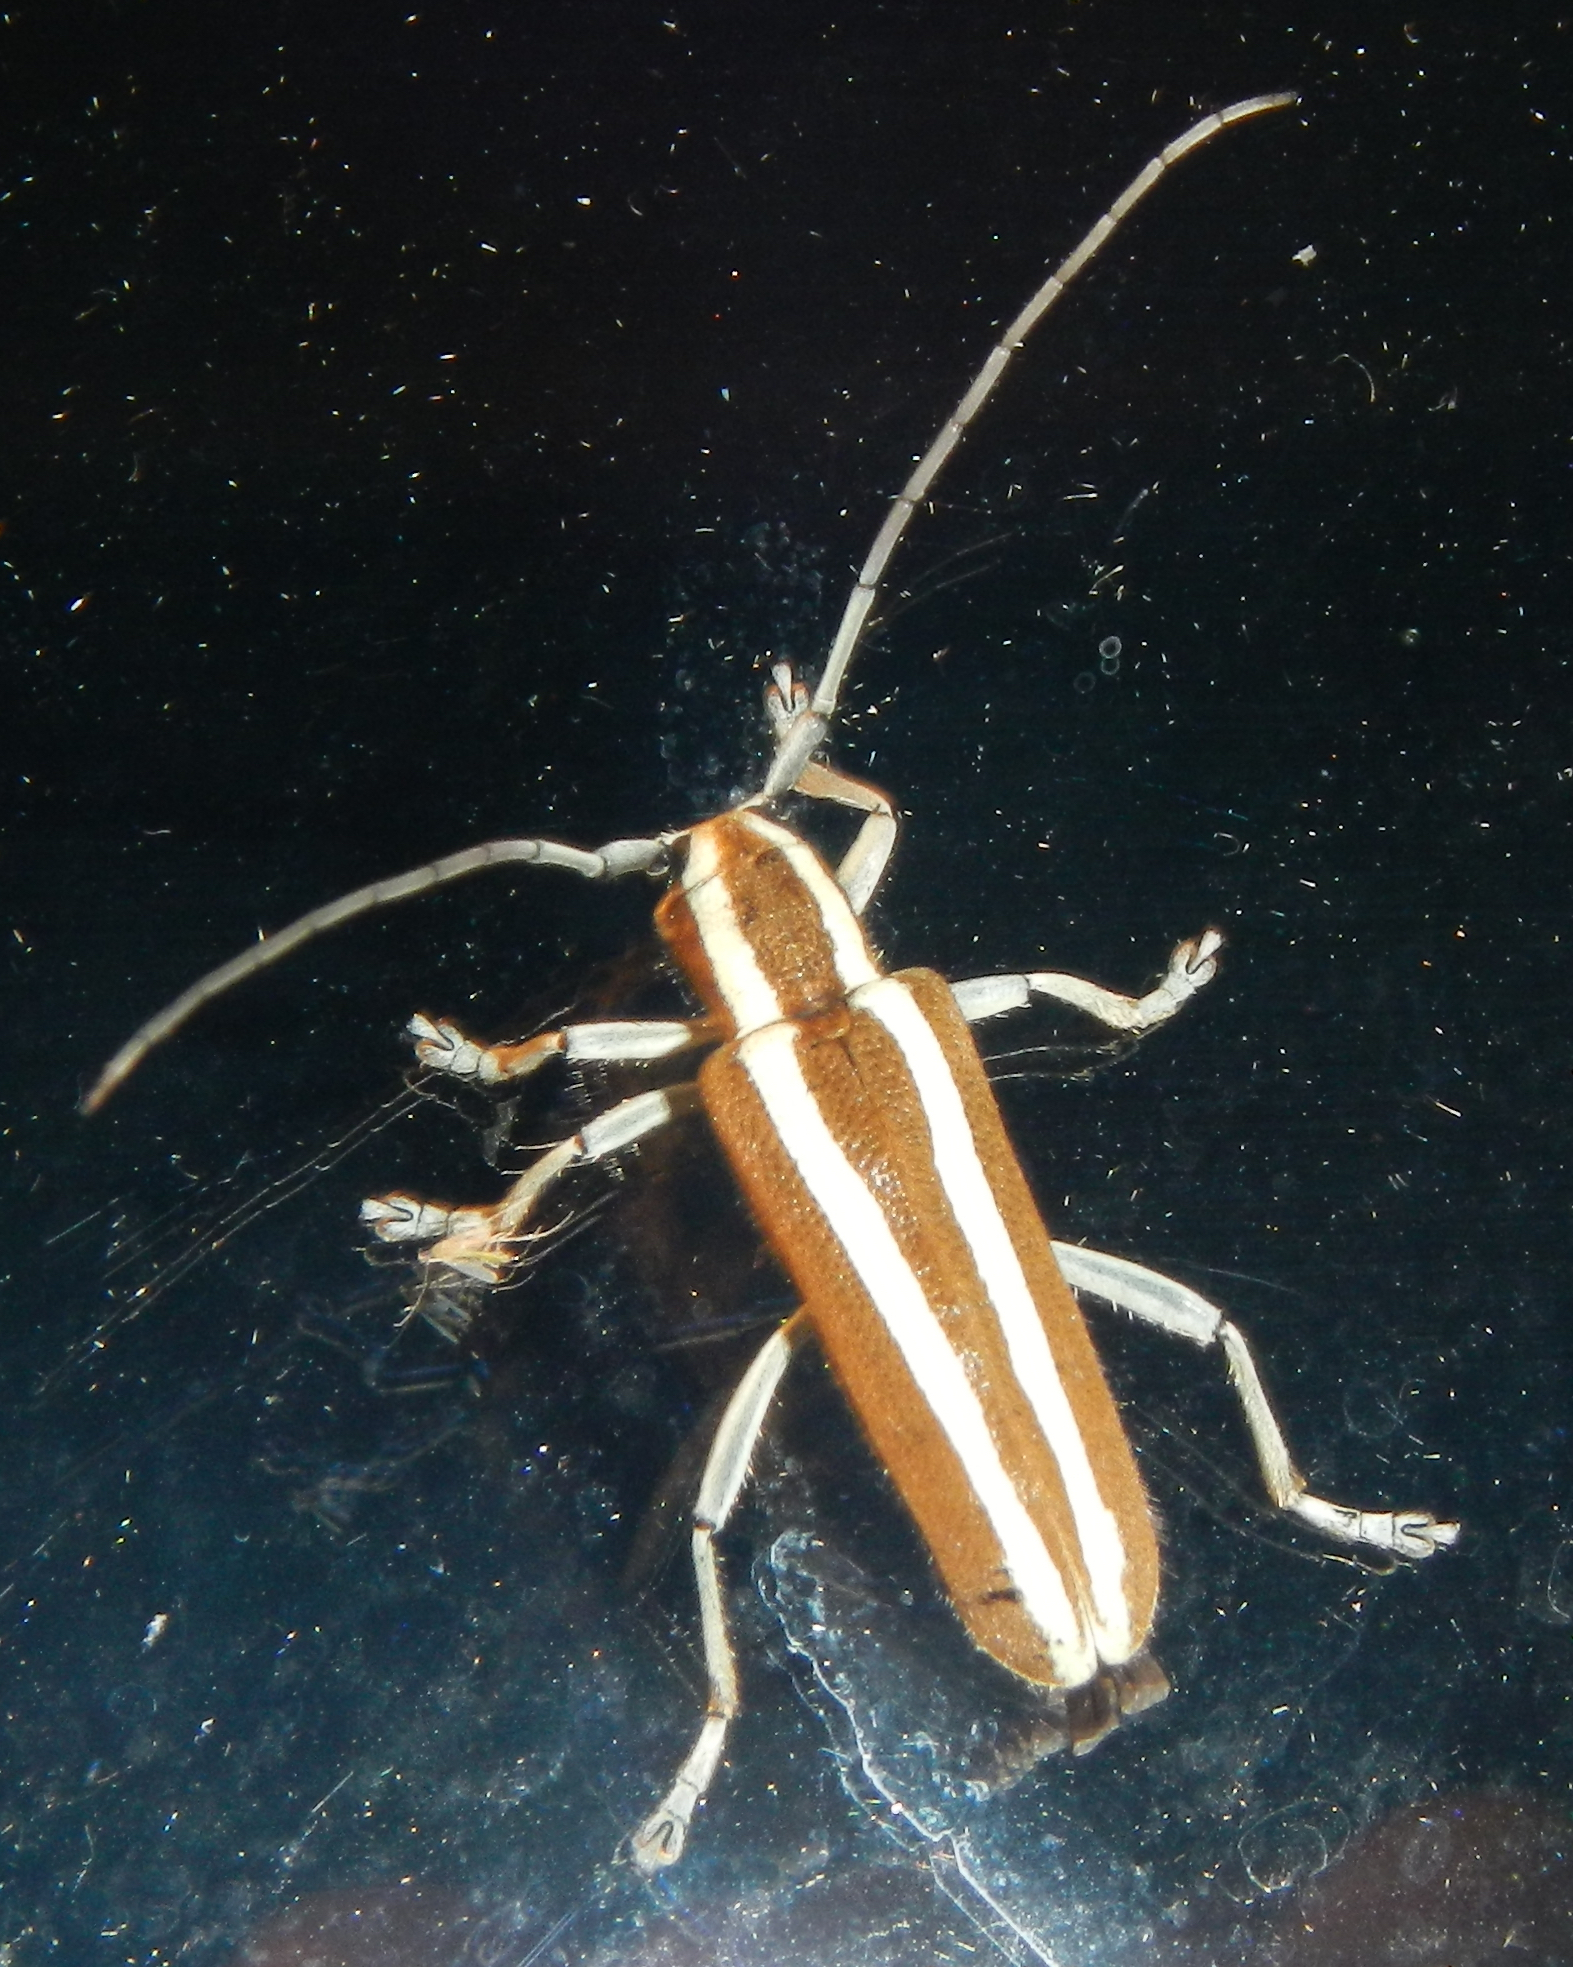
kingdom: Animalia
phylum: Arthropoda
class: Insecta
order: Coleoptera
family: Cerambycidae
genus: Saperda
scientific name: Saperda candida
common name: Round-headed borer
